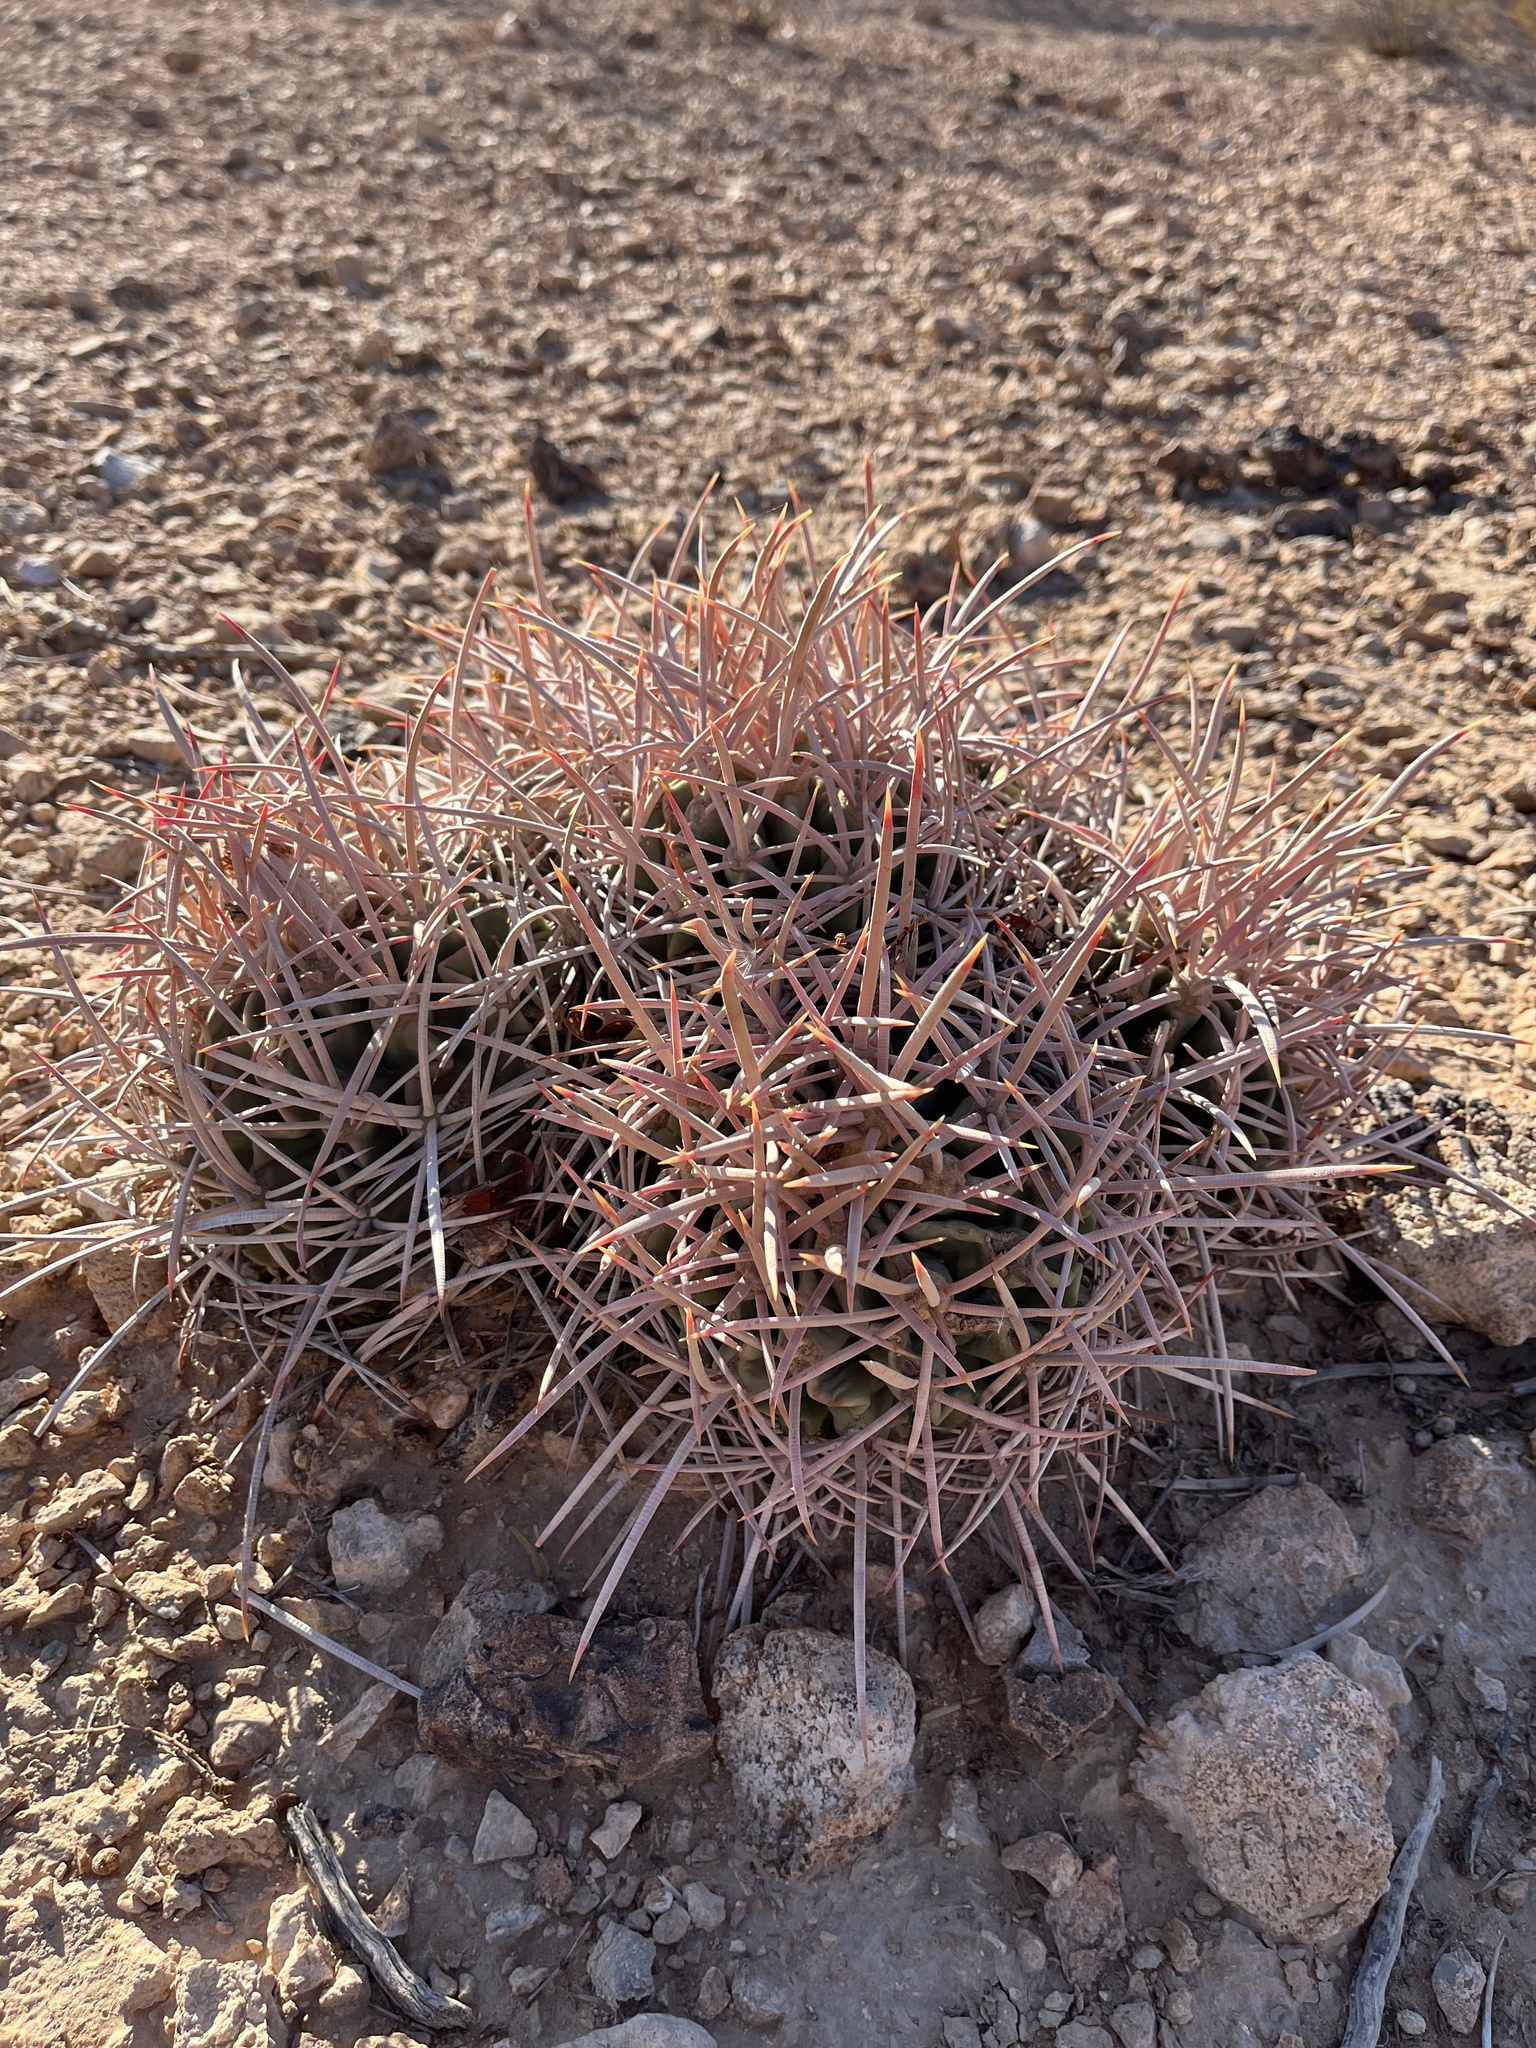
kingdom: Plantae
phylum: Tracheophyta
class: Magnoliopsida
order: Caryophyllales
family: Cactaceae
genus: Echinocactus
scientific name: Echinocactus polycephalus
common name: Cottontop cactus
